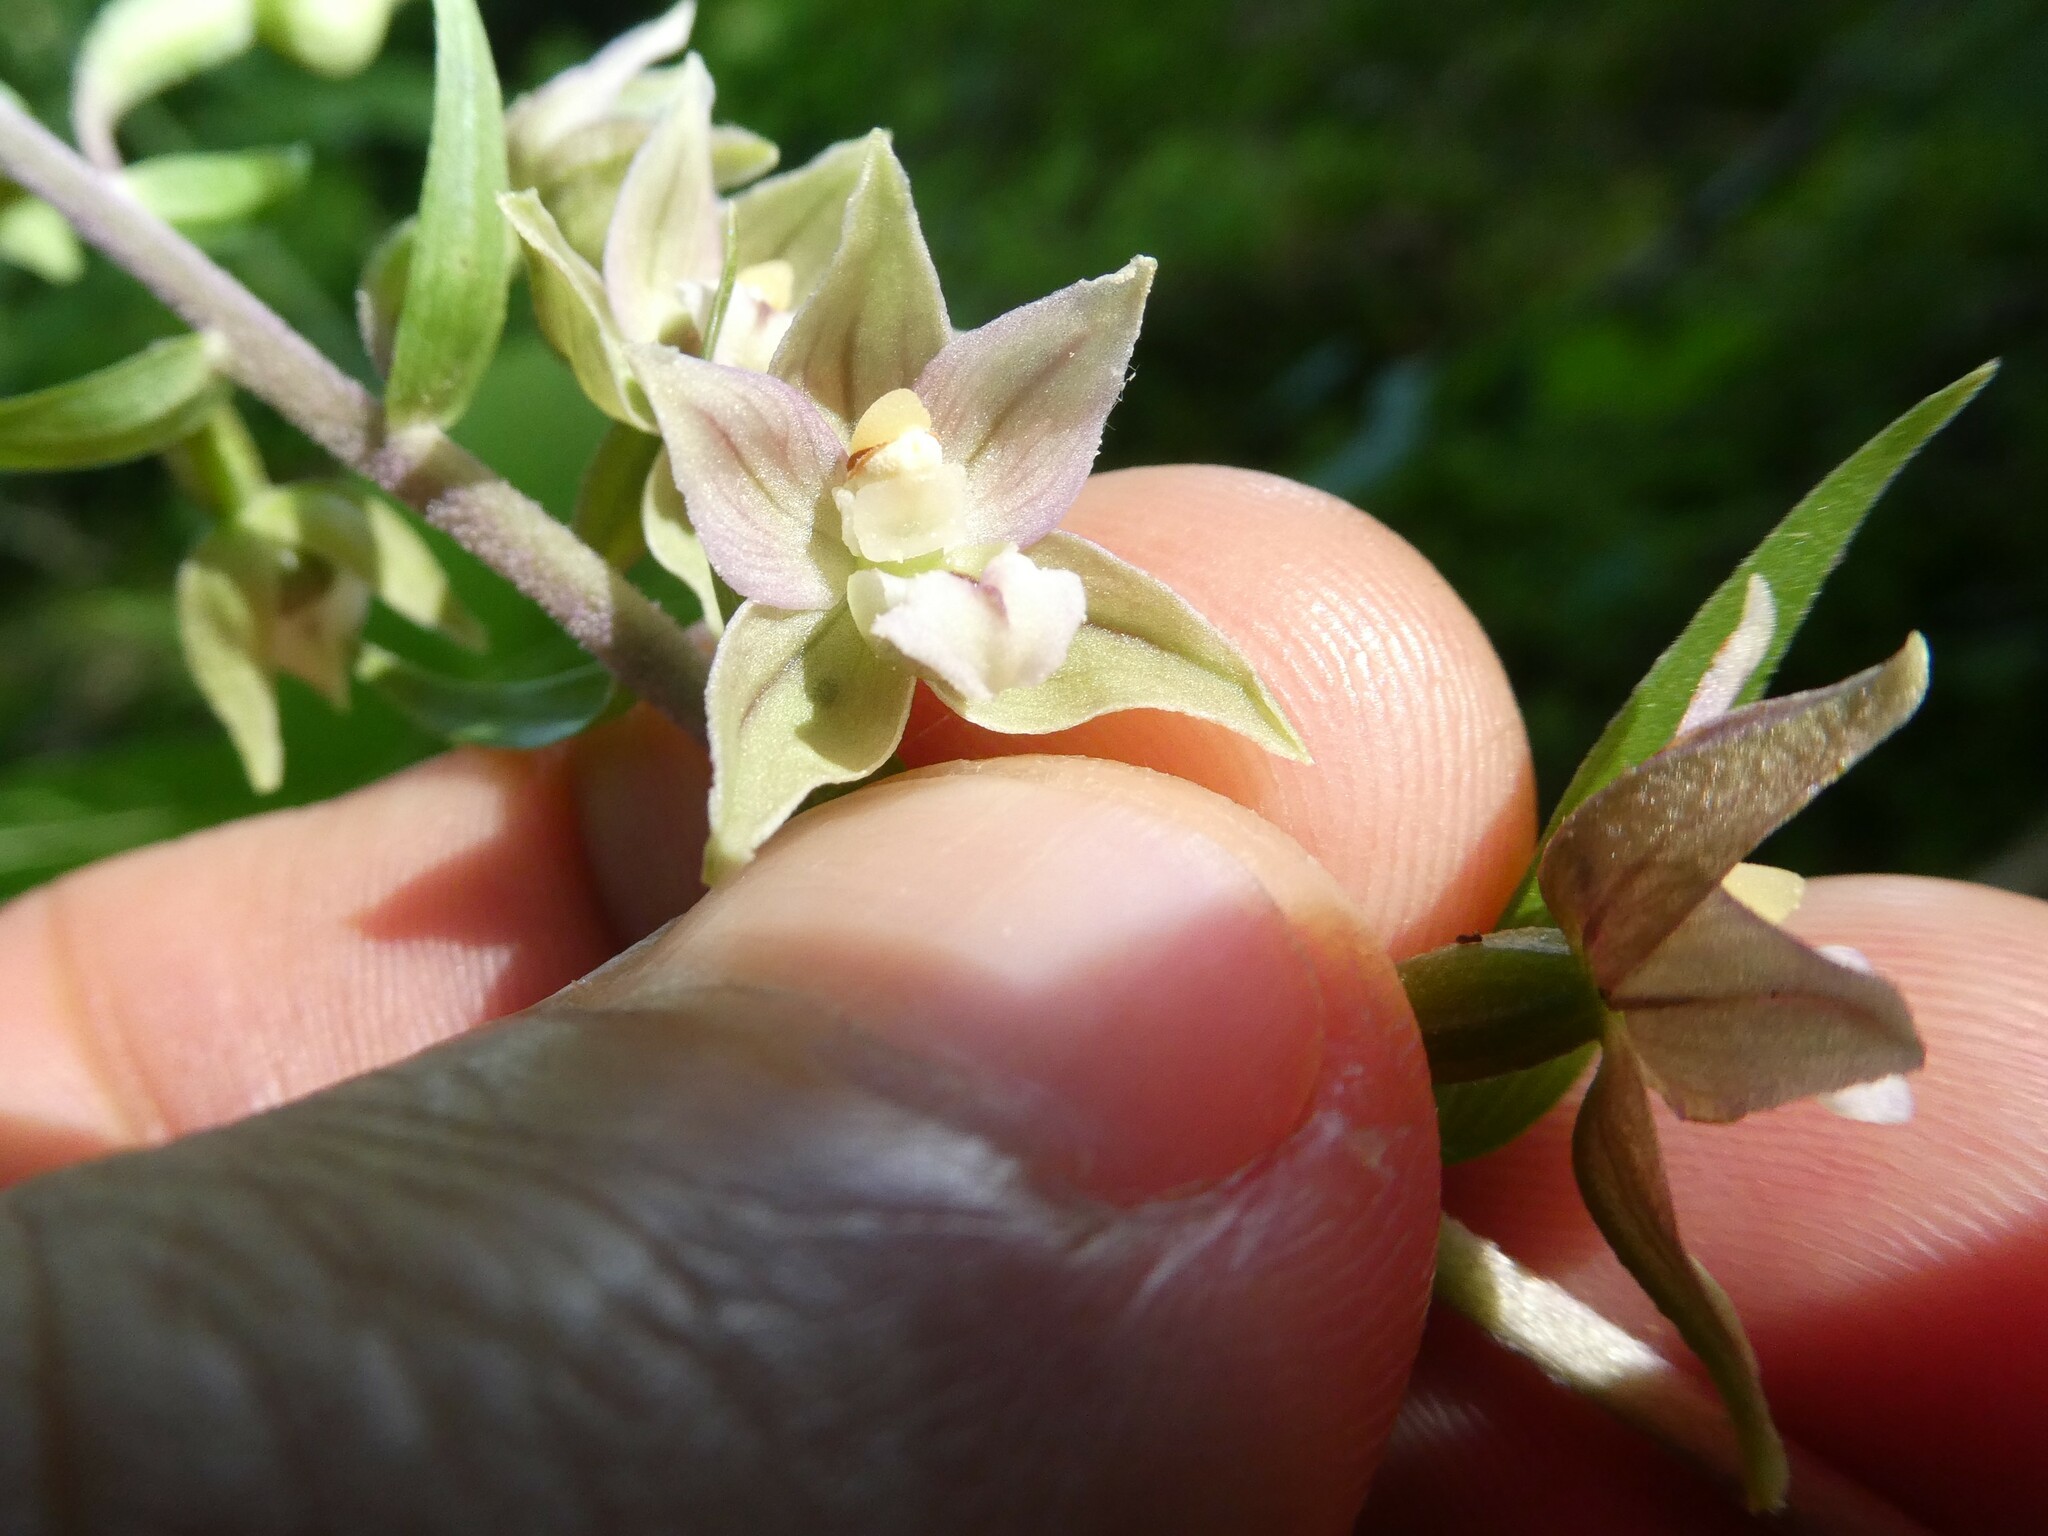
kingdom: Plantae
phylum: Tracheophyta
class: Liliopsida
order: Asparagales
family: Orchidaceae
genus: Epipactis
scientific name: Epipactis helleborine
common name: Broad-leaved helleborine
